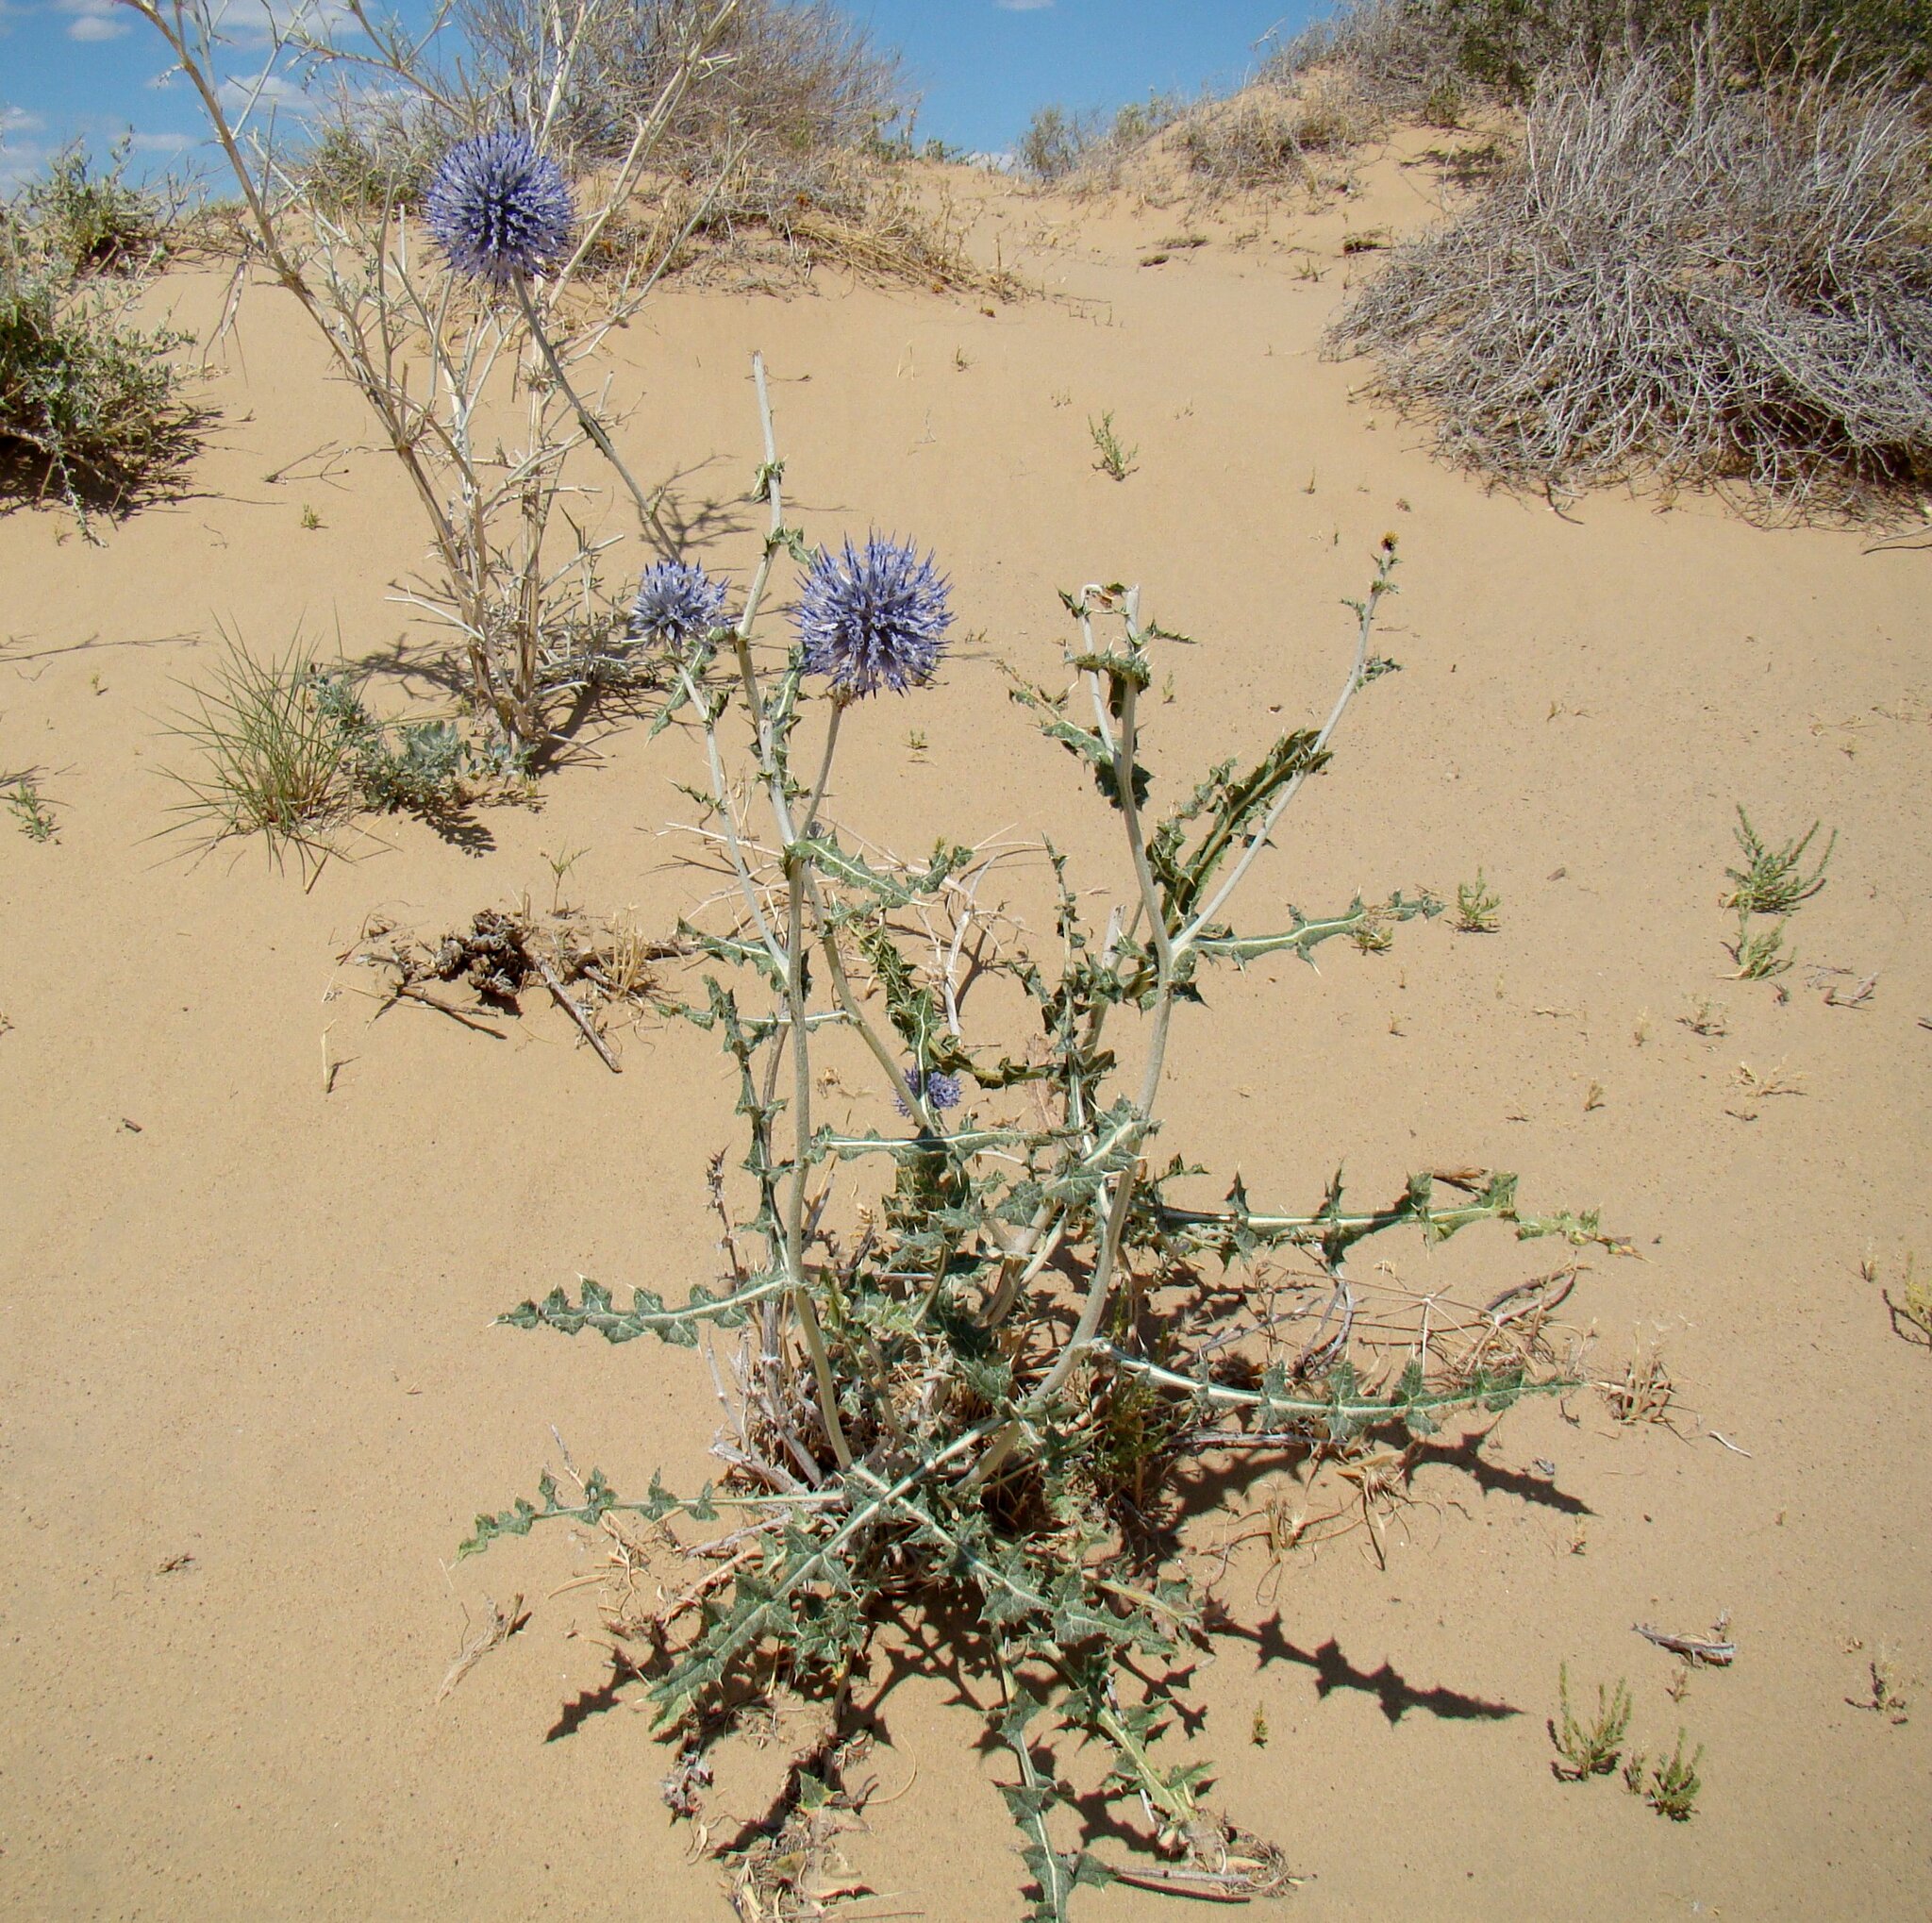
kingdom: Plantae
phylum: Tracheophyta
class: Magnoliopsida
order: Asterales
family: Asteraceae
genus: Echinops
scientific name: Echinops albicaulis
